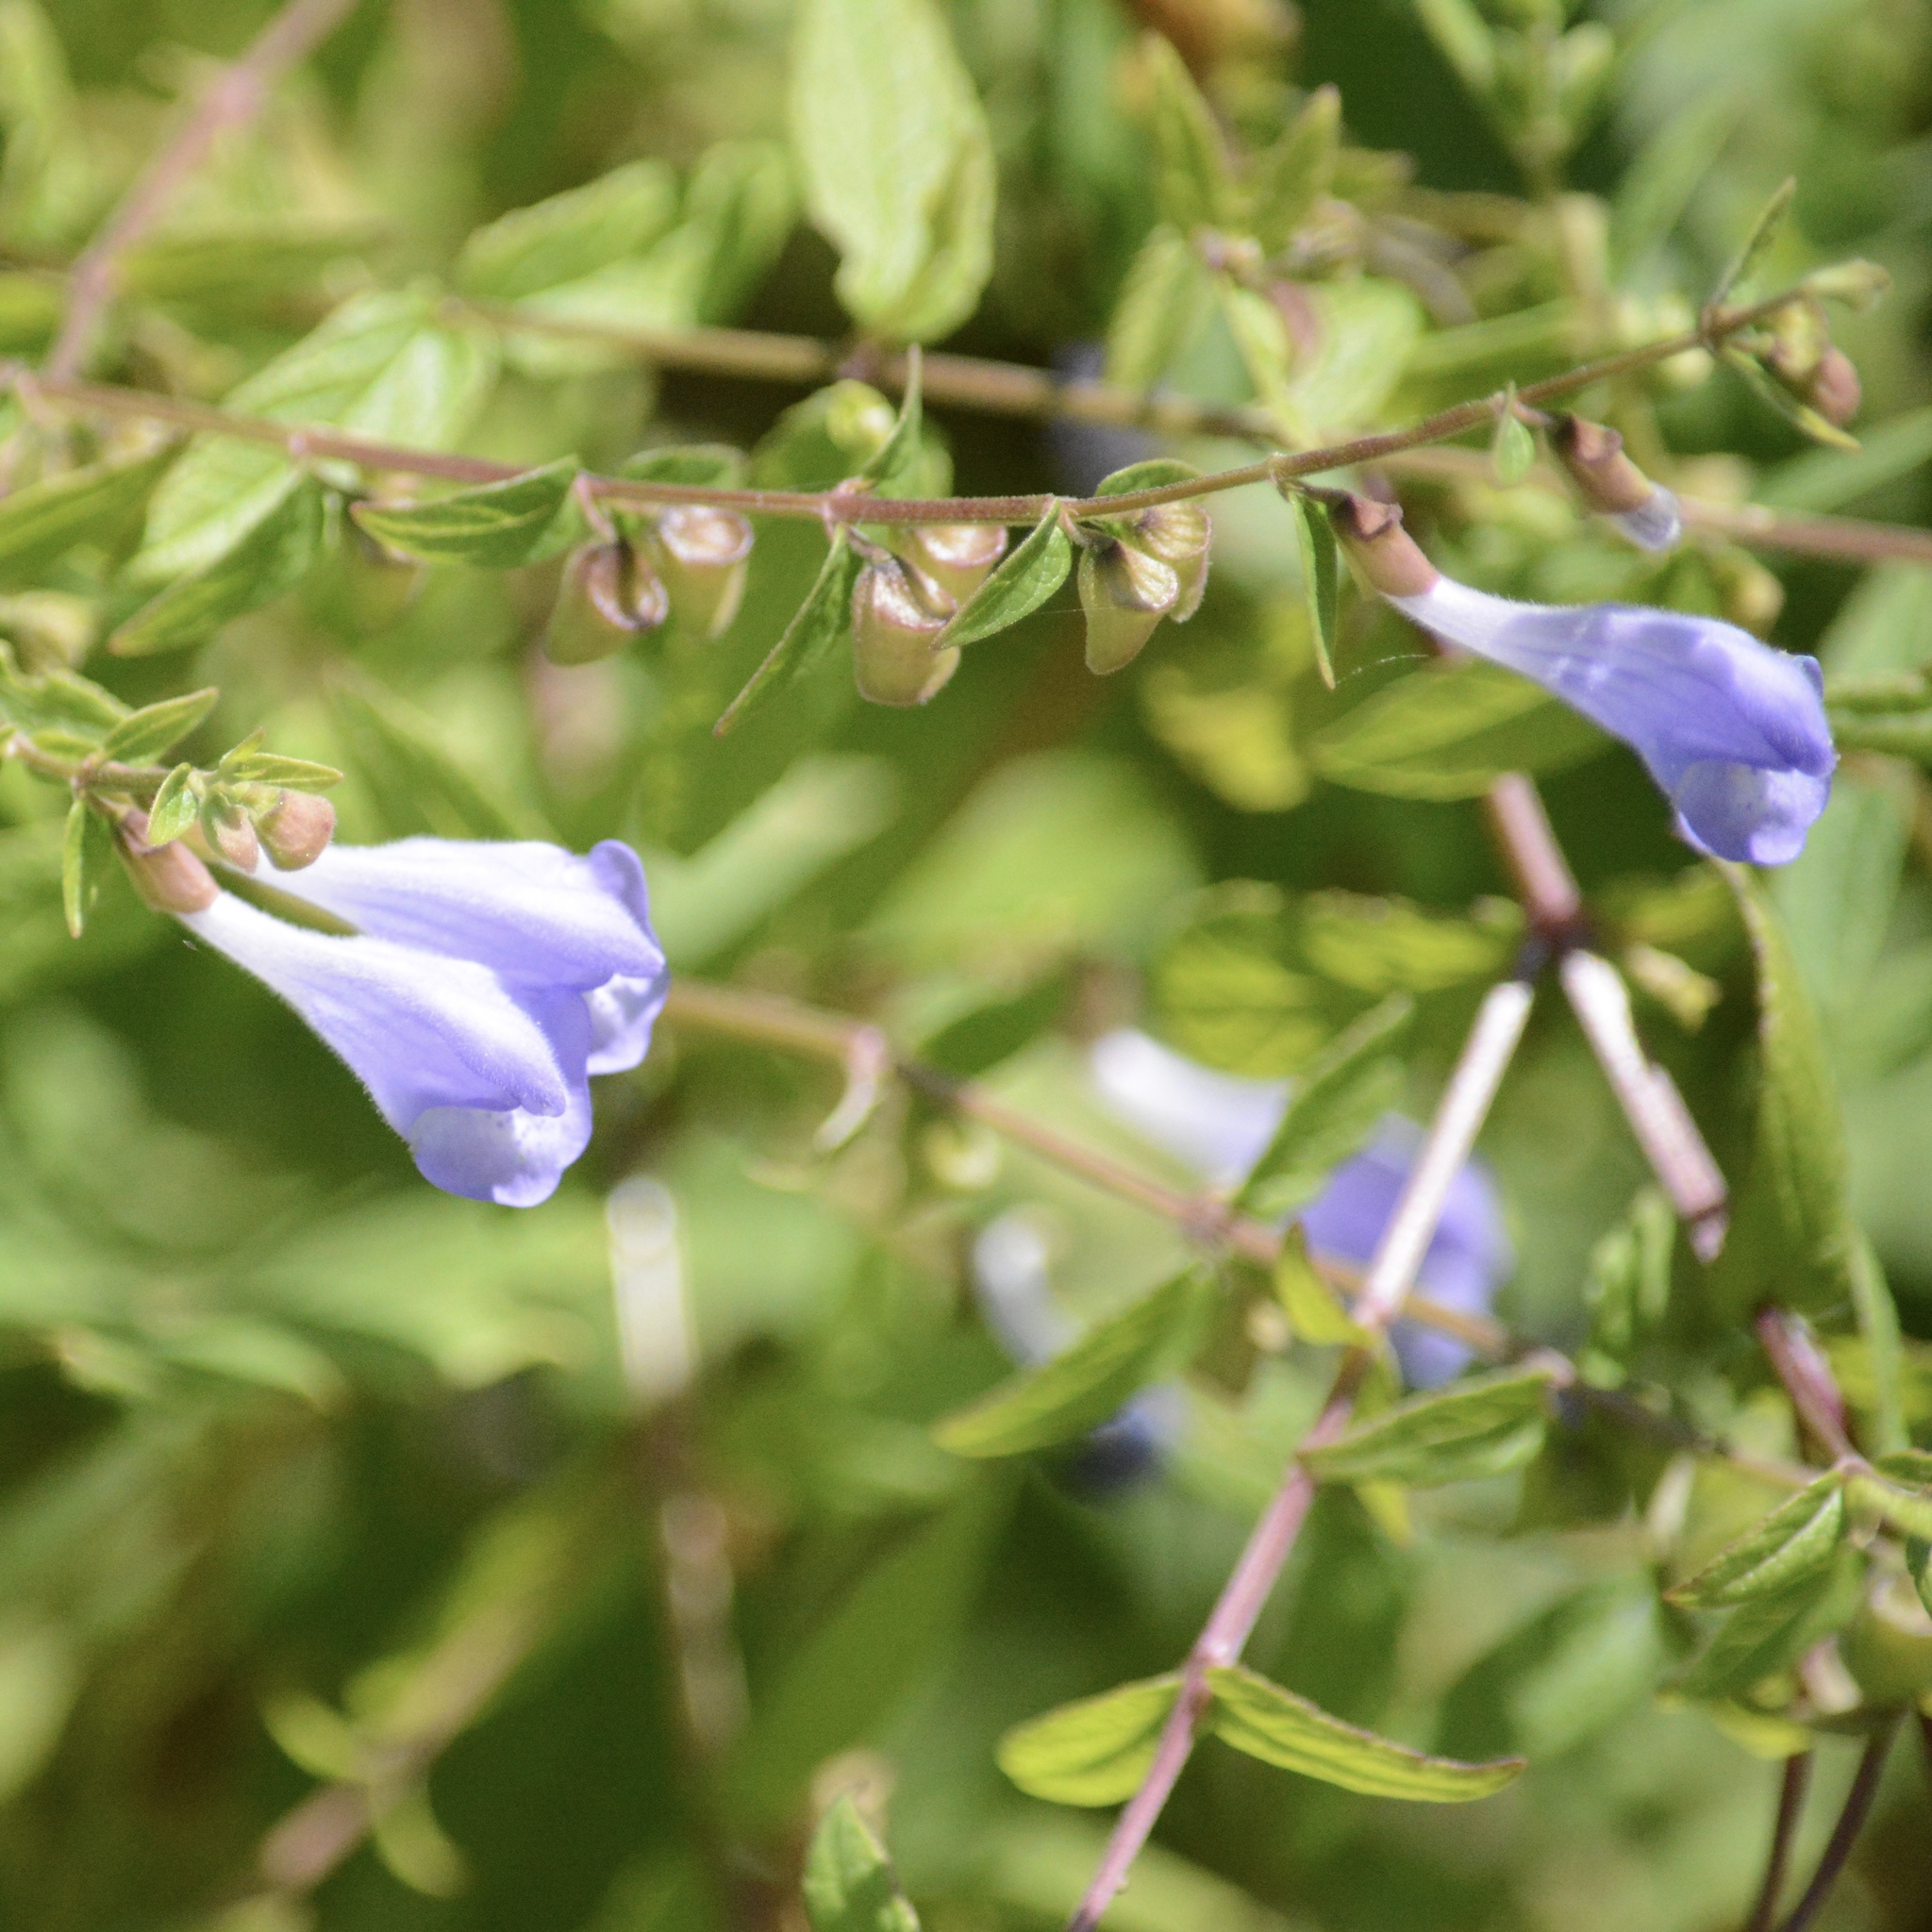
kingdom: Plantae
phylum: Tracheophyta
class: Magnoliopsida
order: Lamiales
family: Lamiaceae
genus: Scutellaria
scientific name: Scutellaria galericulata
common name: Skullcap
